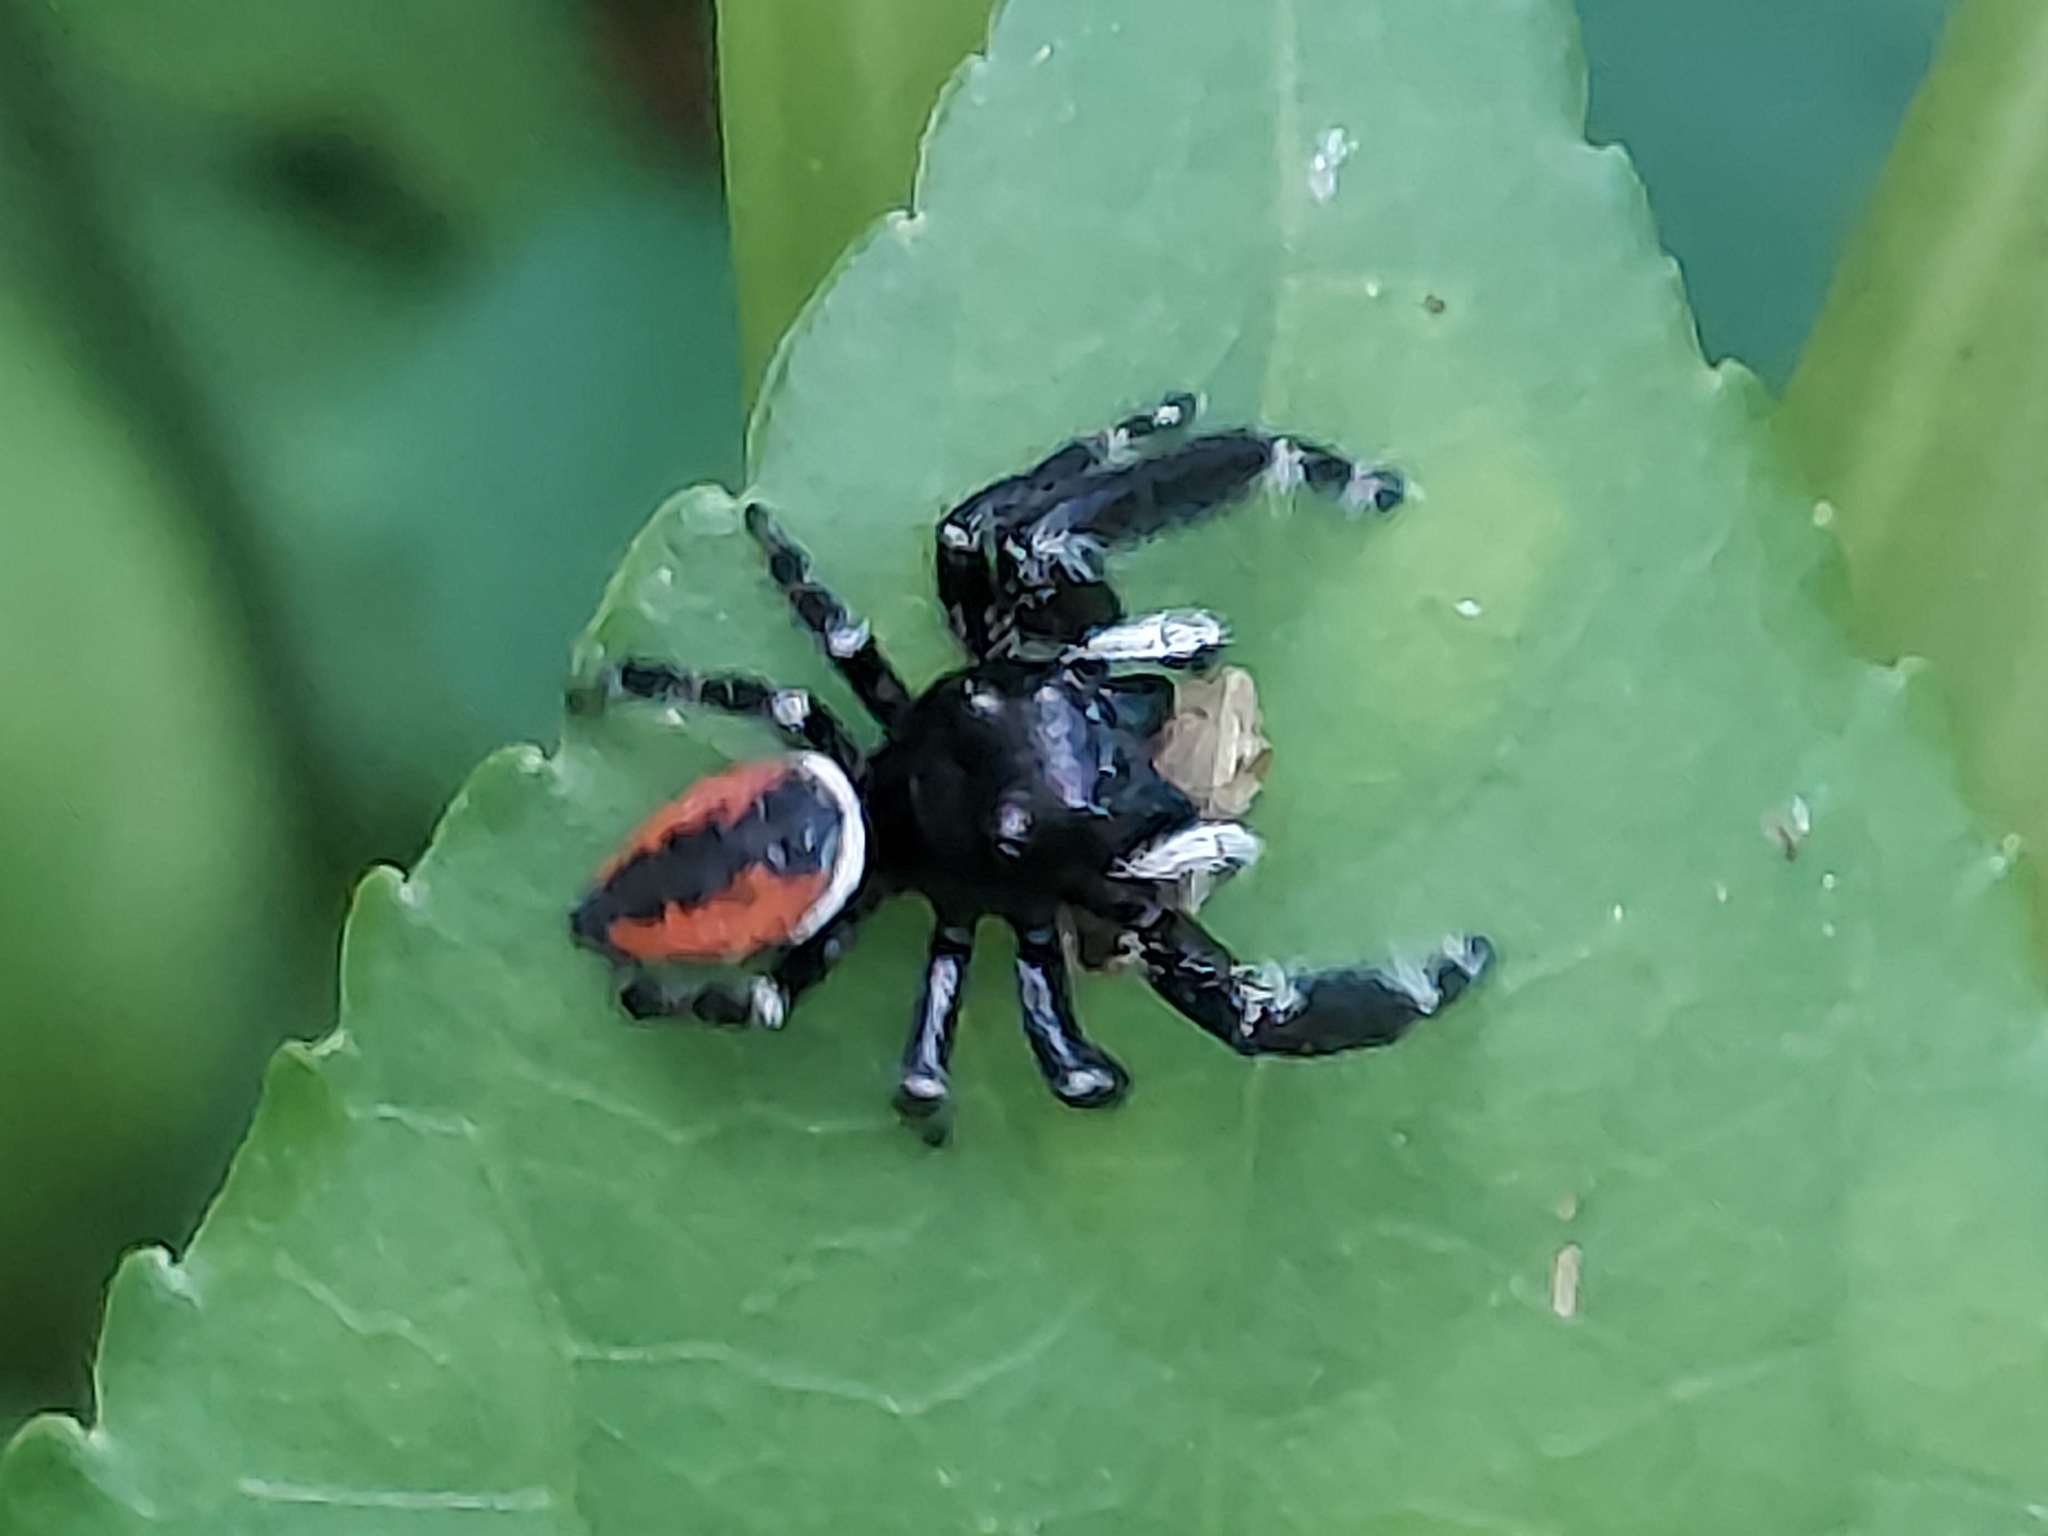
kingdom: Animalia
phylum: Arthropoda
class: Arachnida
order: Araneae
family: Salticidae
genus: Phidippus
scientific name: Phidippus clarus
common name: Brilliant jumping spider
